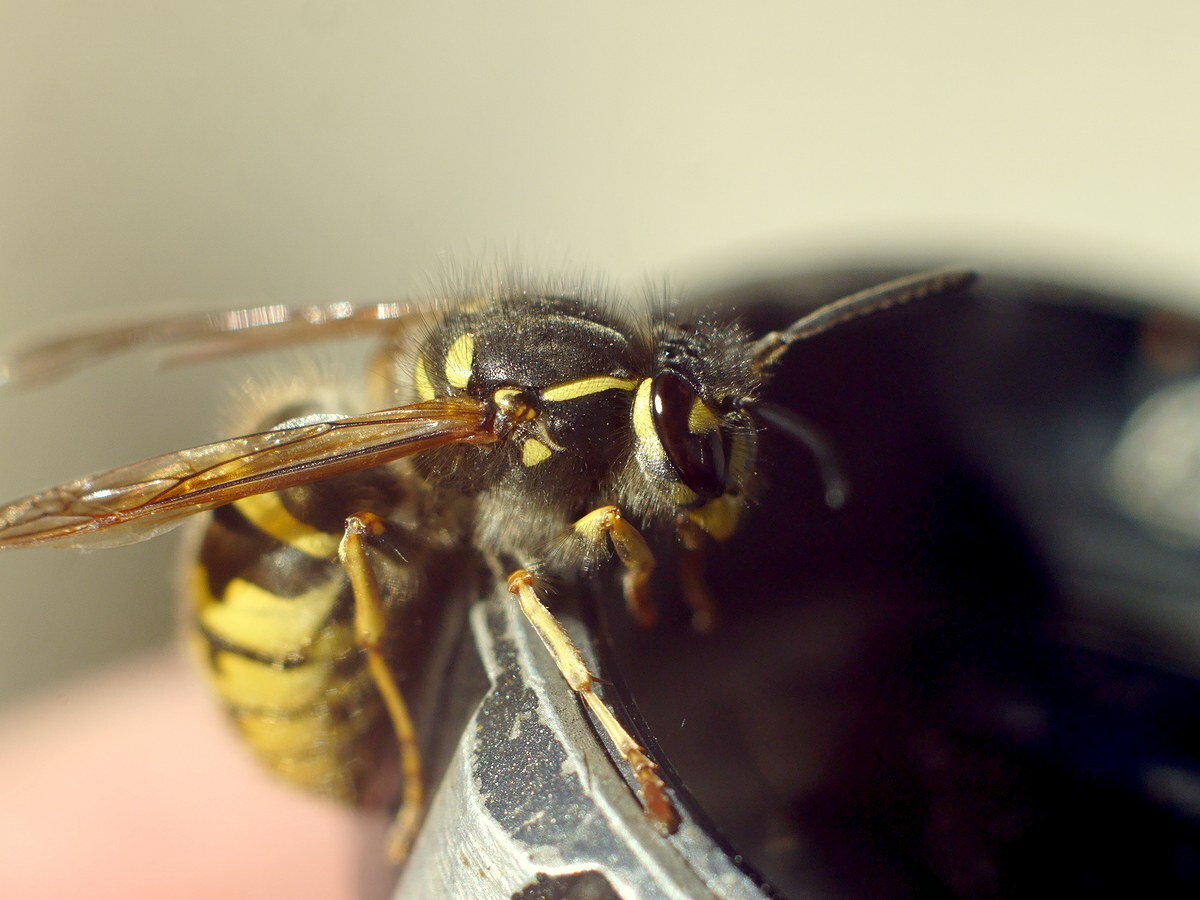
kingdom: Animalia
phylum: Arthropoda
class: Insecta
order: Hymenoptera
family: Vespidae
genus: Vespula
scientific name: Vespula vulgaris
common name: Common wasp
